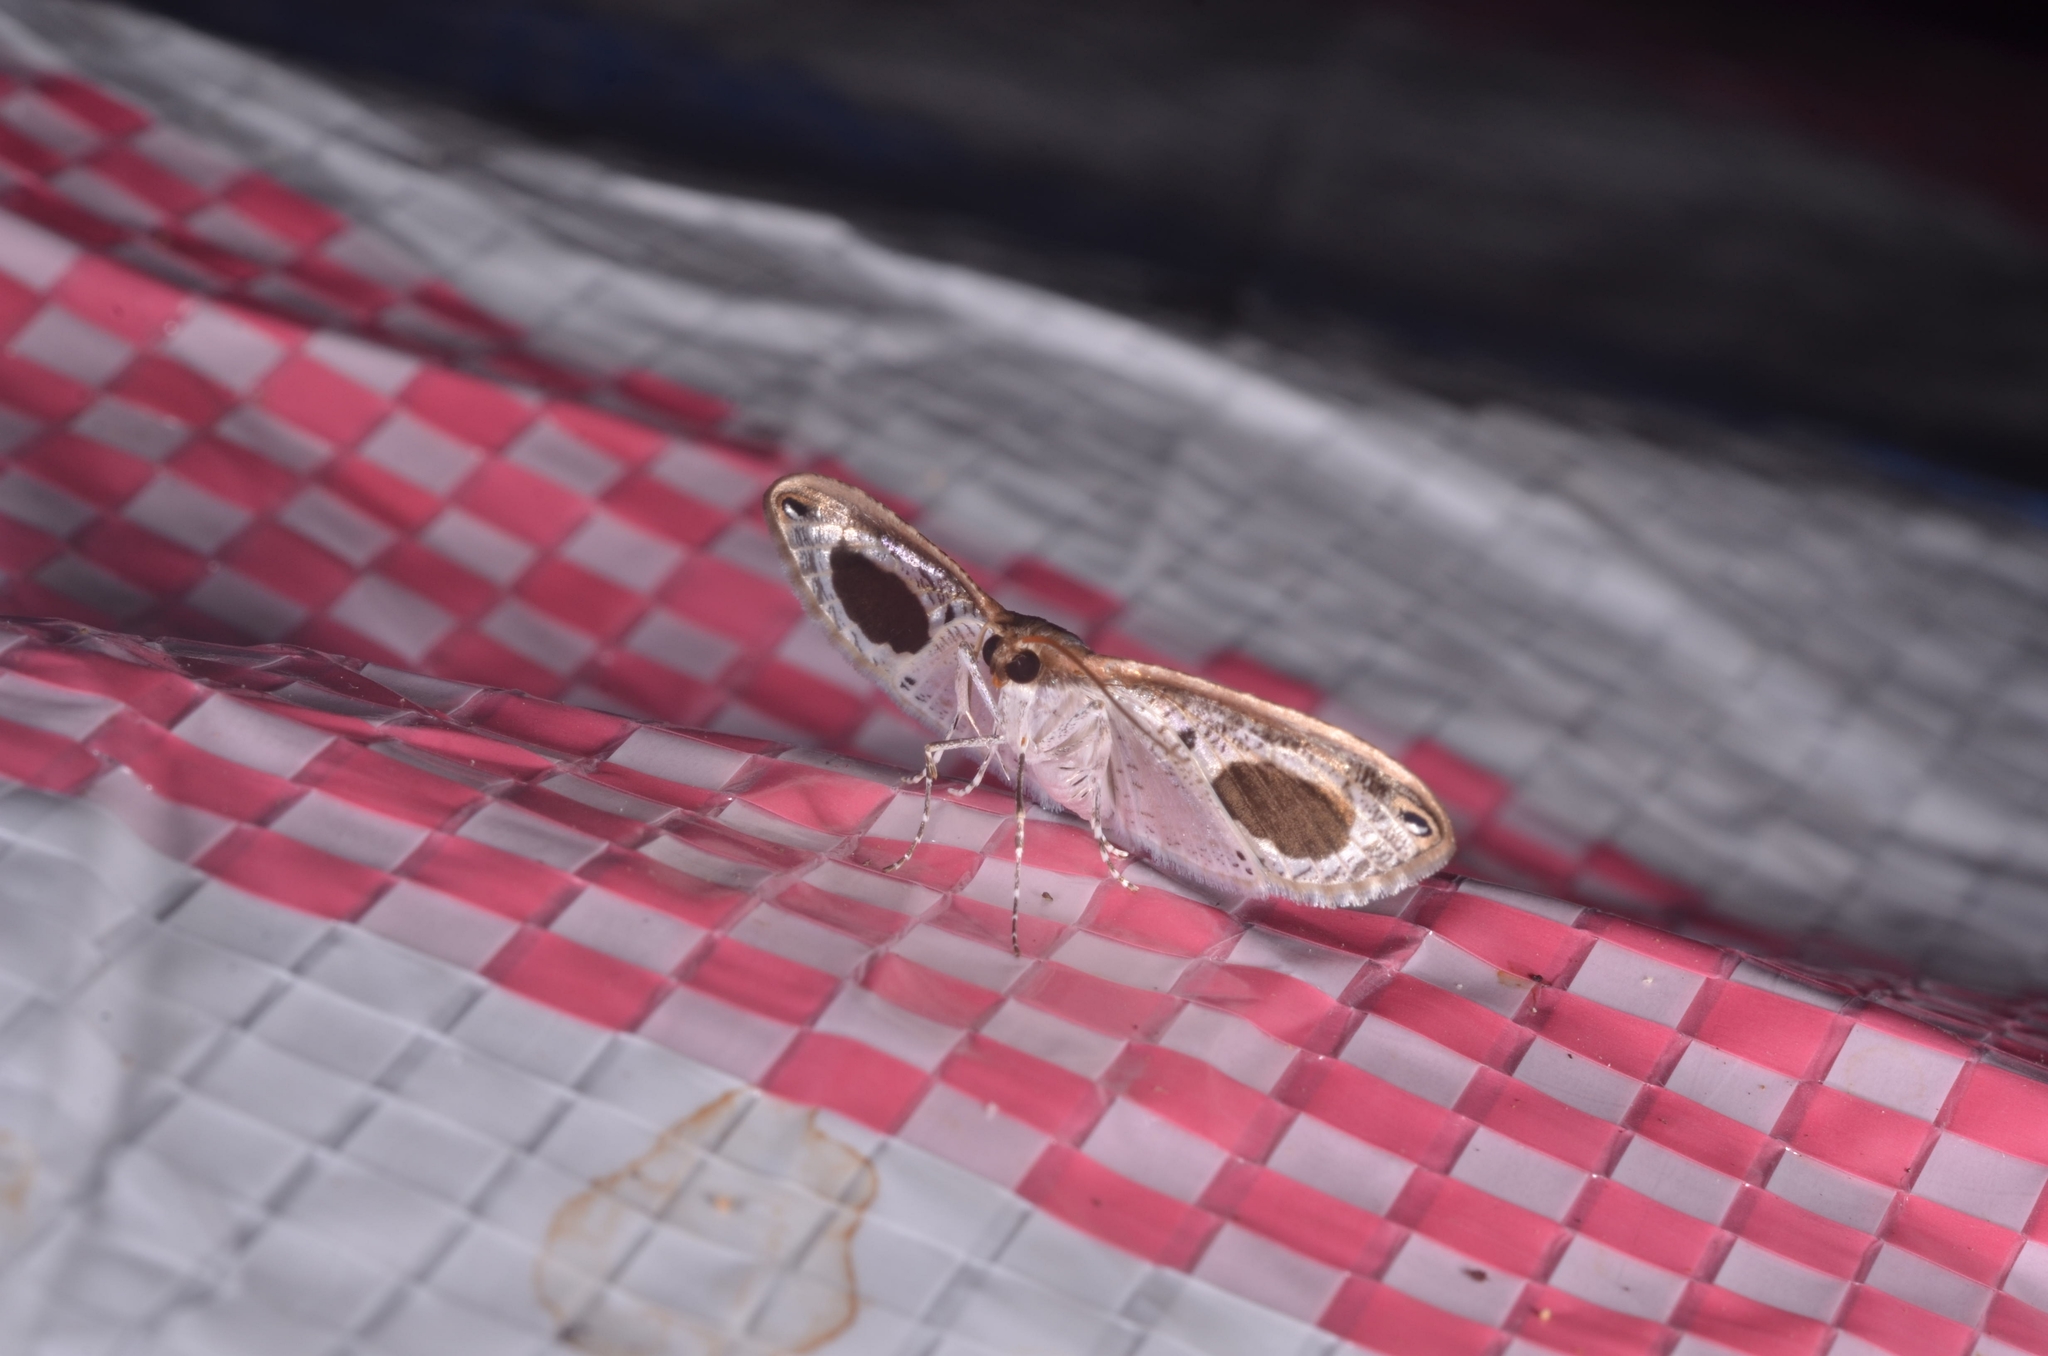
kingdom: Animalia
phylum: Arthropoda
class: Insecta
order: Lepidoptera
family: Thyrididae
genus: Calindoea
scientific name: Calindoea
